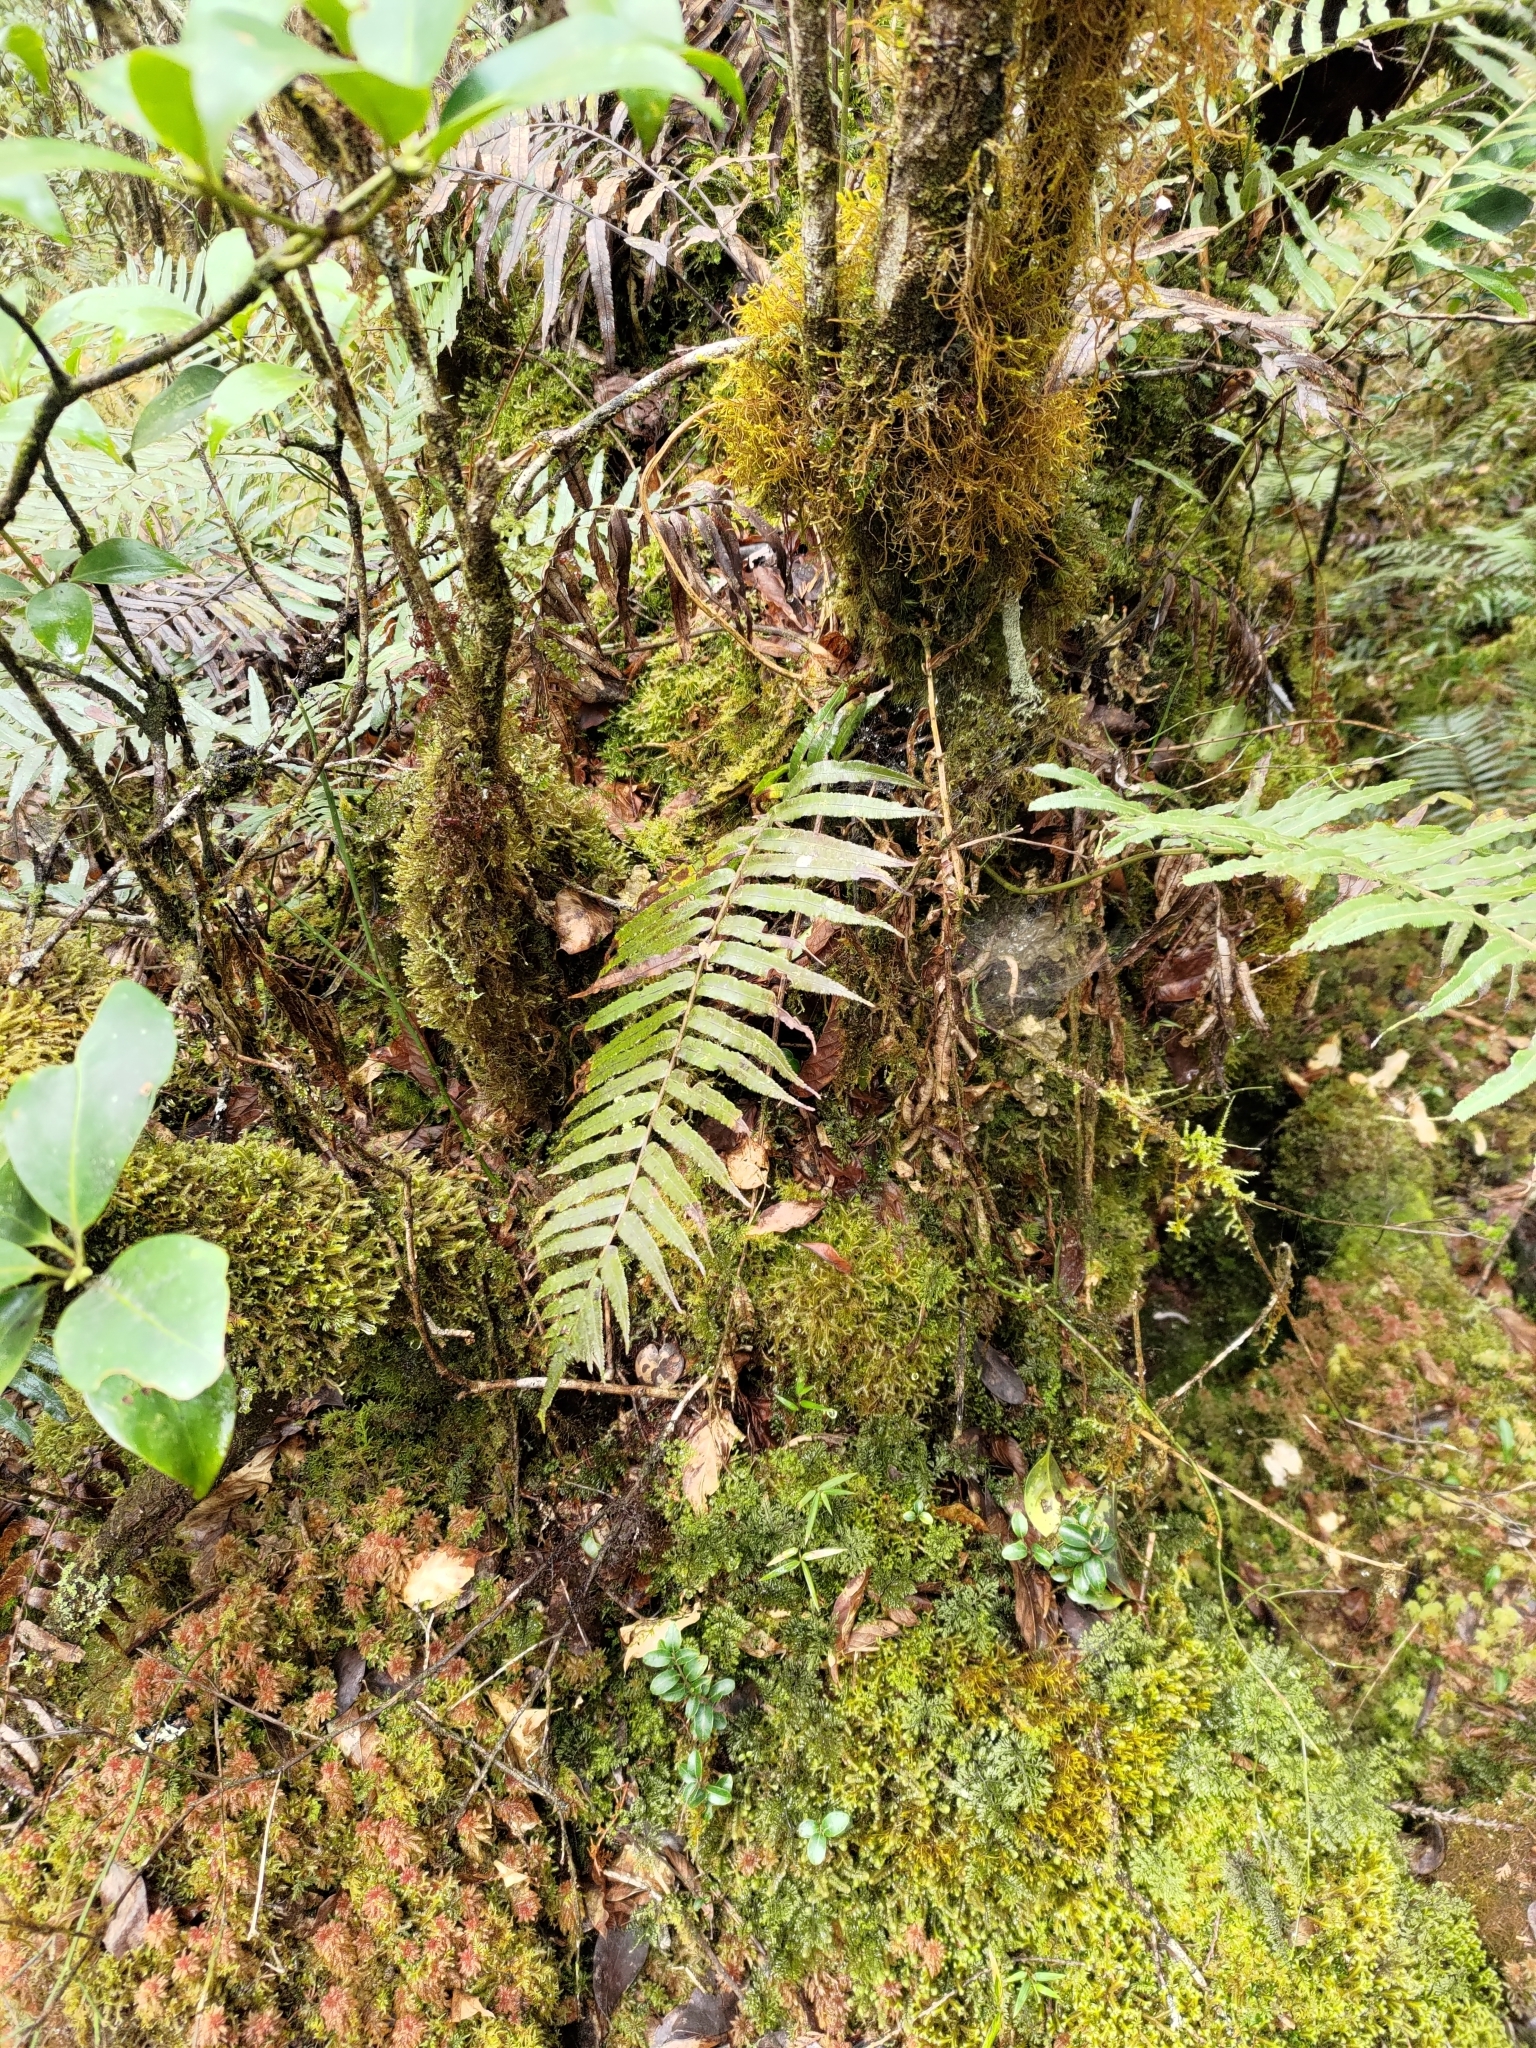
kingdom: Plantae
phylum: Tracheophyta
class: Polypodiopsida
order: Cyatheales
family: Plagiogyriaceae
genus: Plagiogyria
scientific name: Plagiogyria glauca
